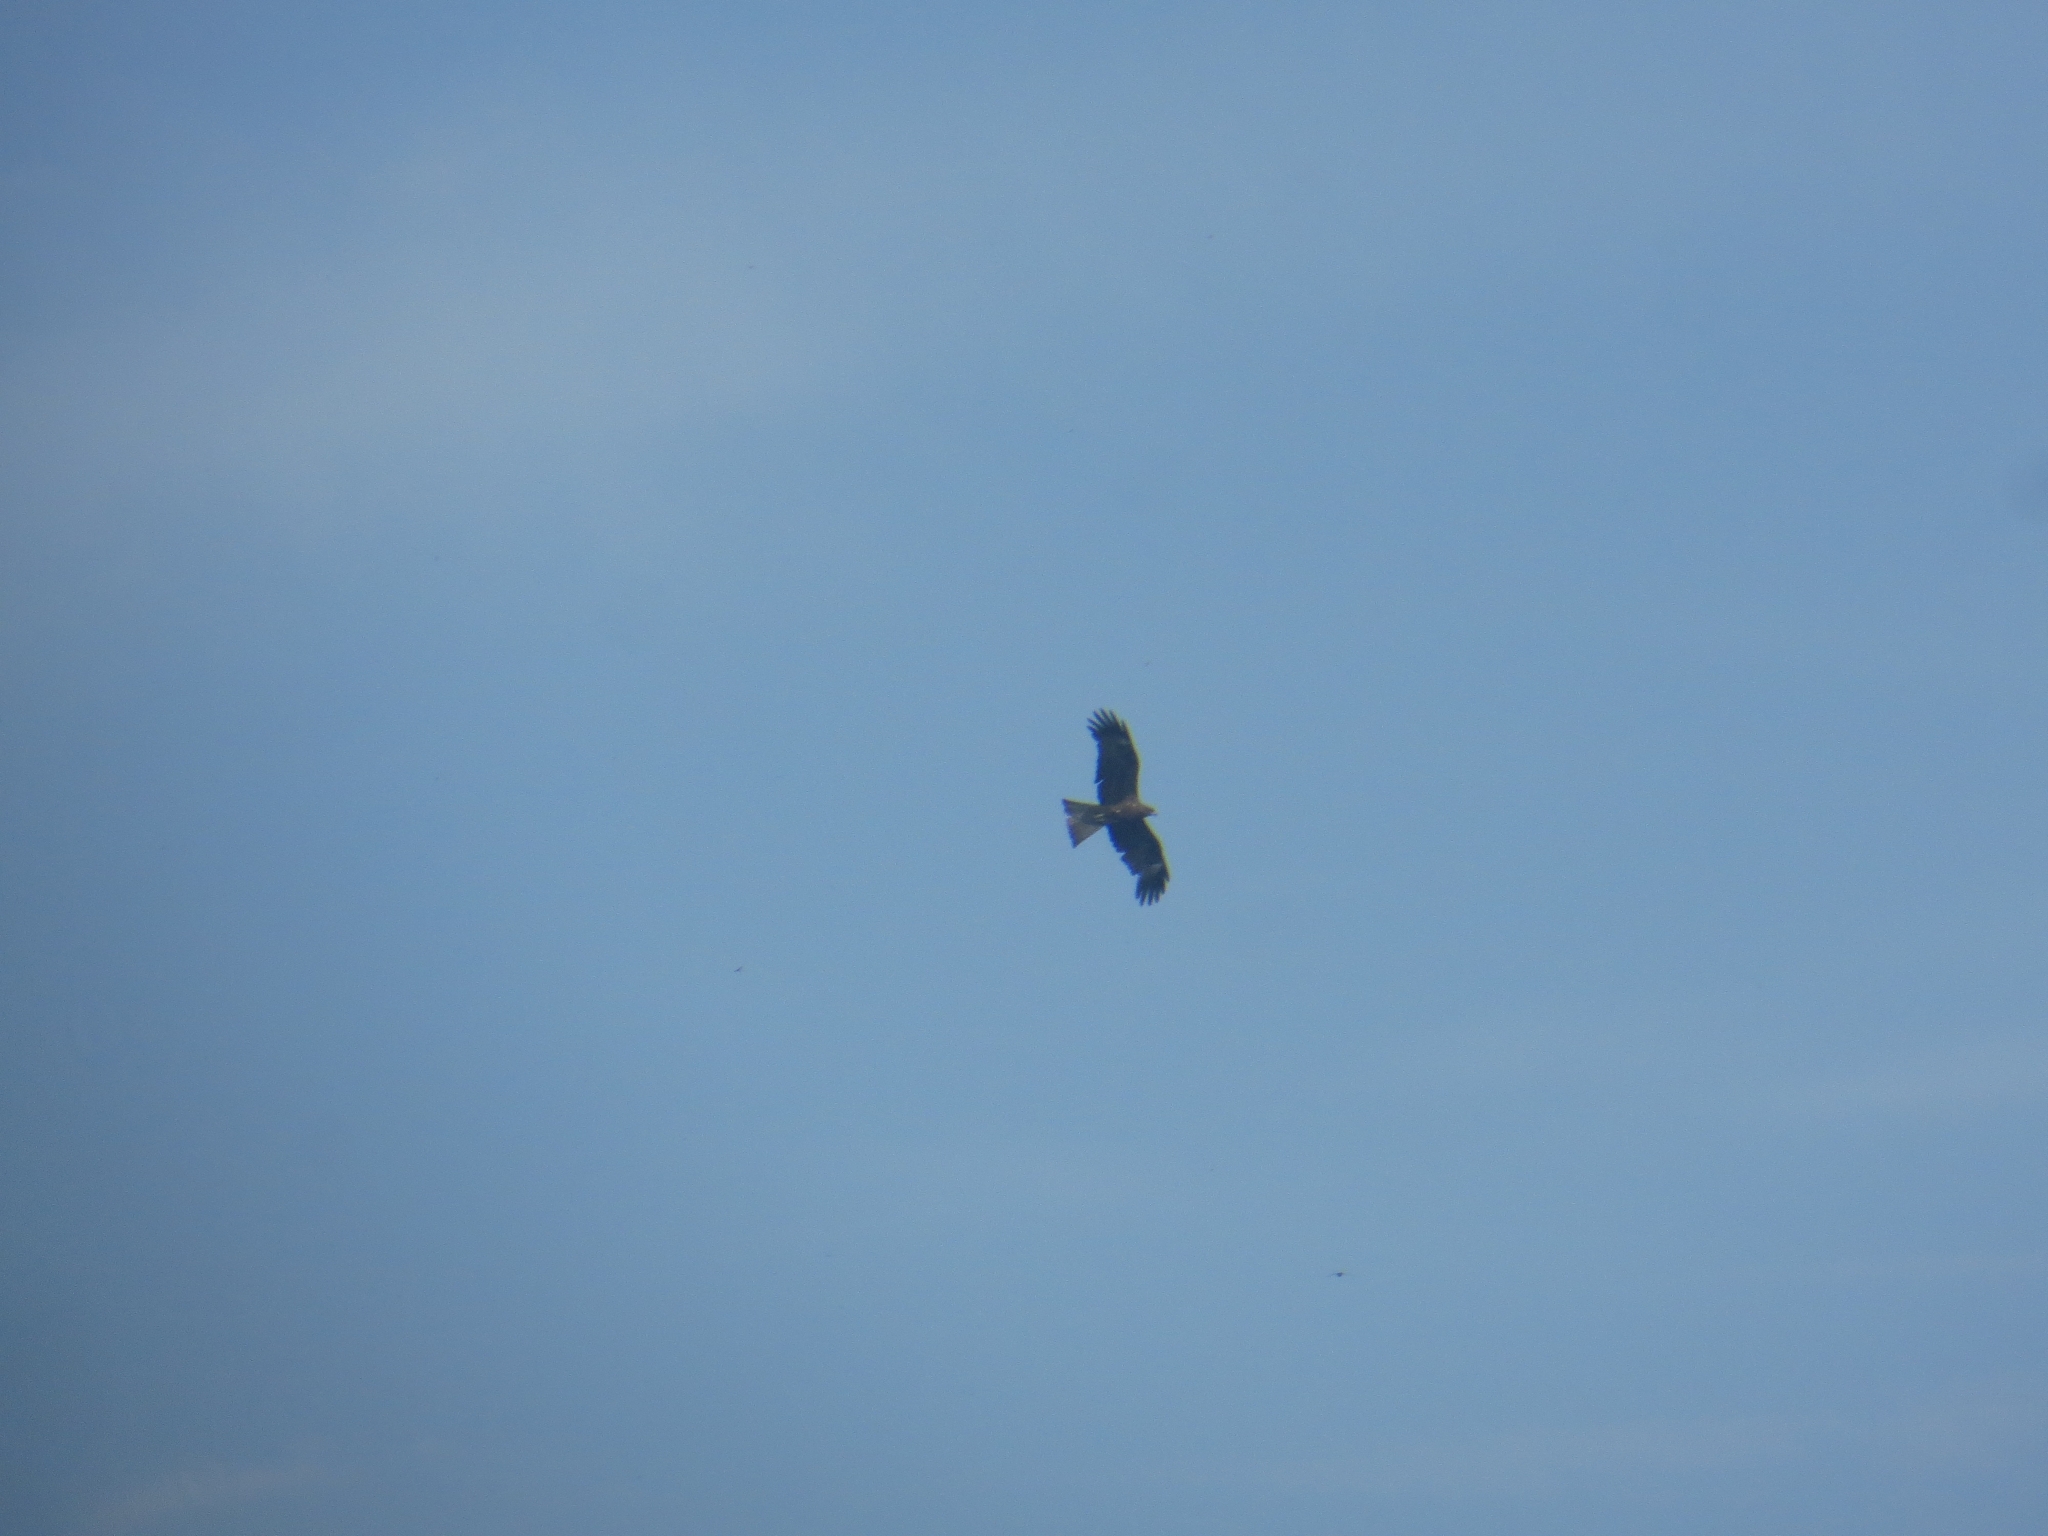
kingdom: Animalia
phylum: Chordata
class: Aves
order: Accipitriformes
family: Accipitridae
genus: Milvus
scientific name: Milvus migrans
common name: Black kite
